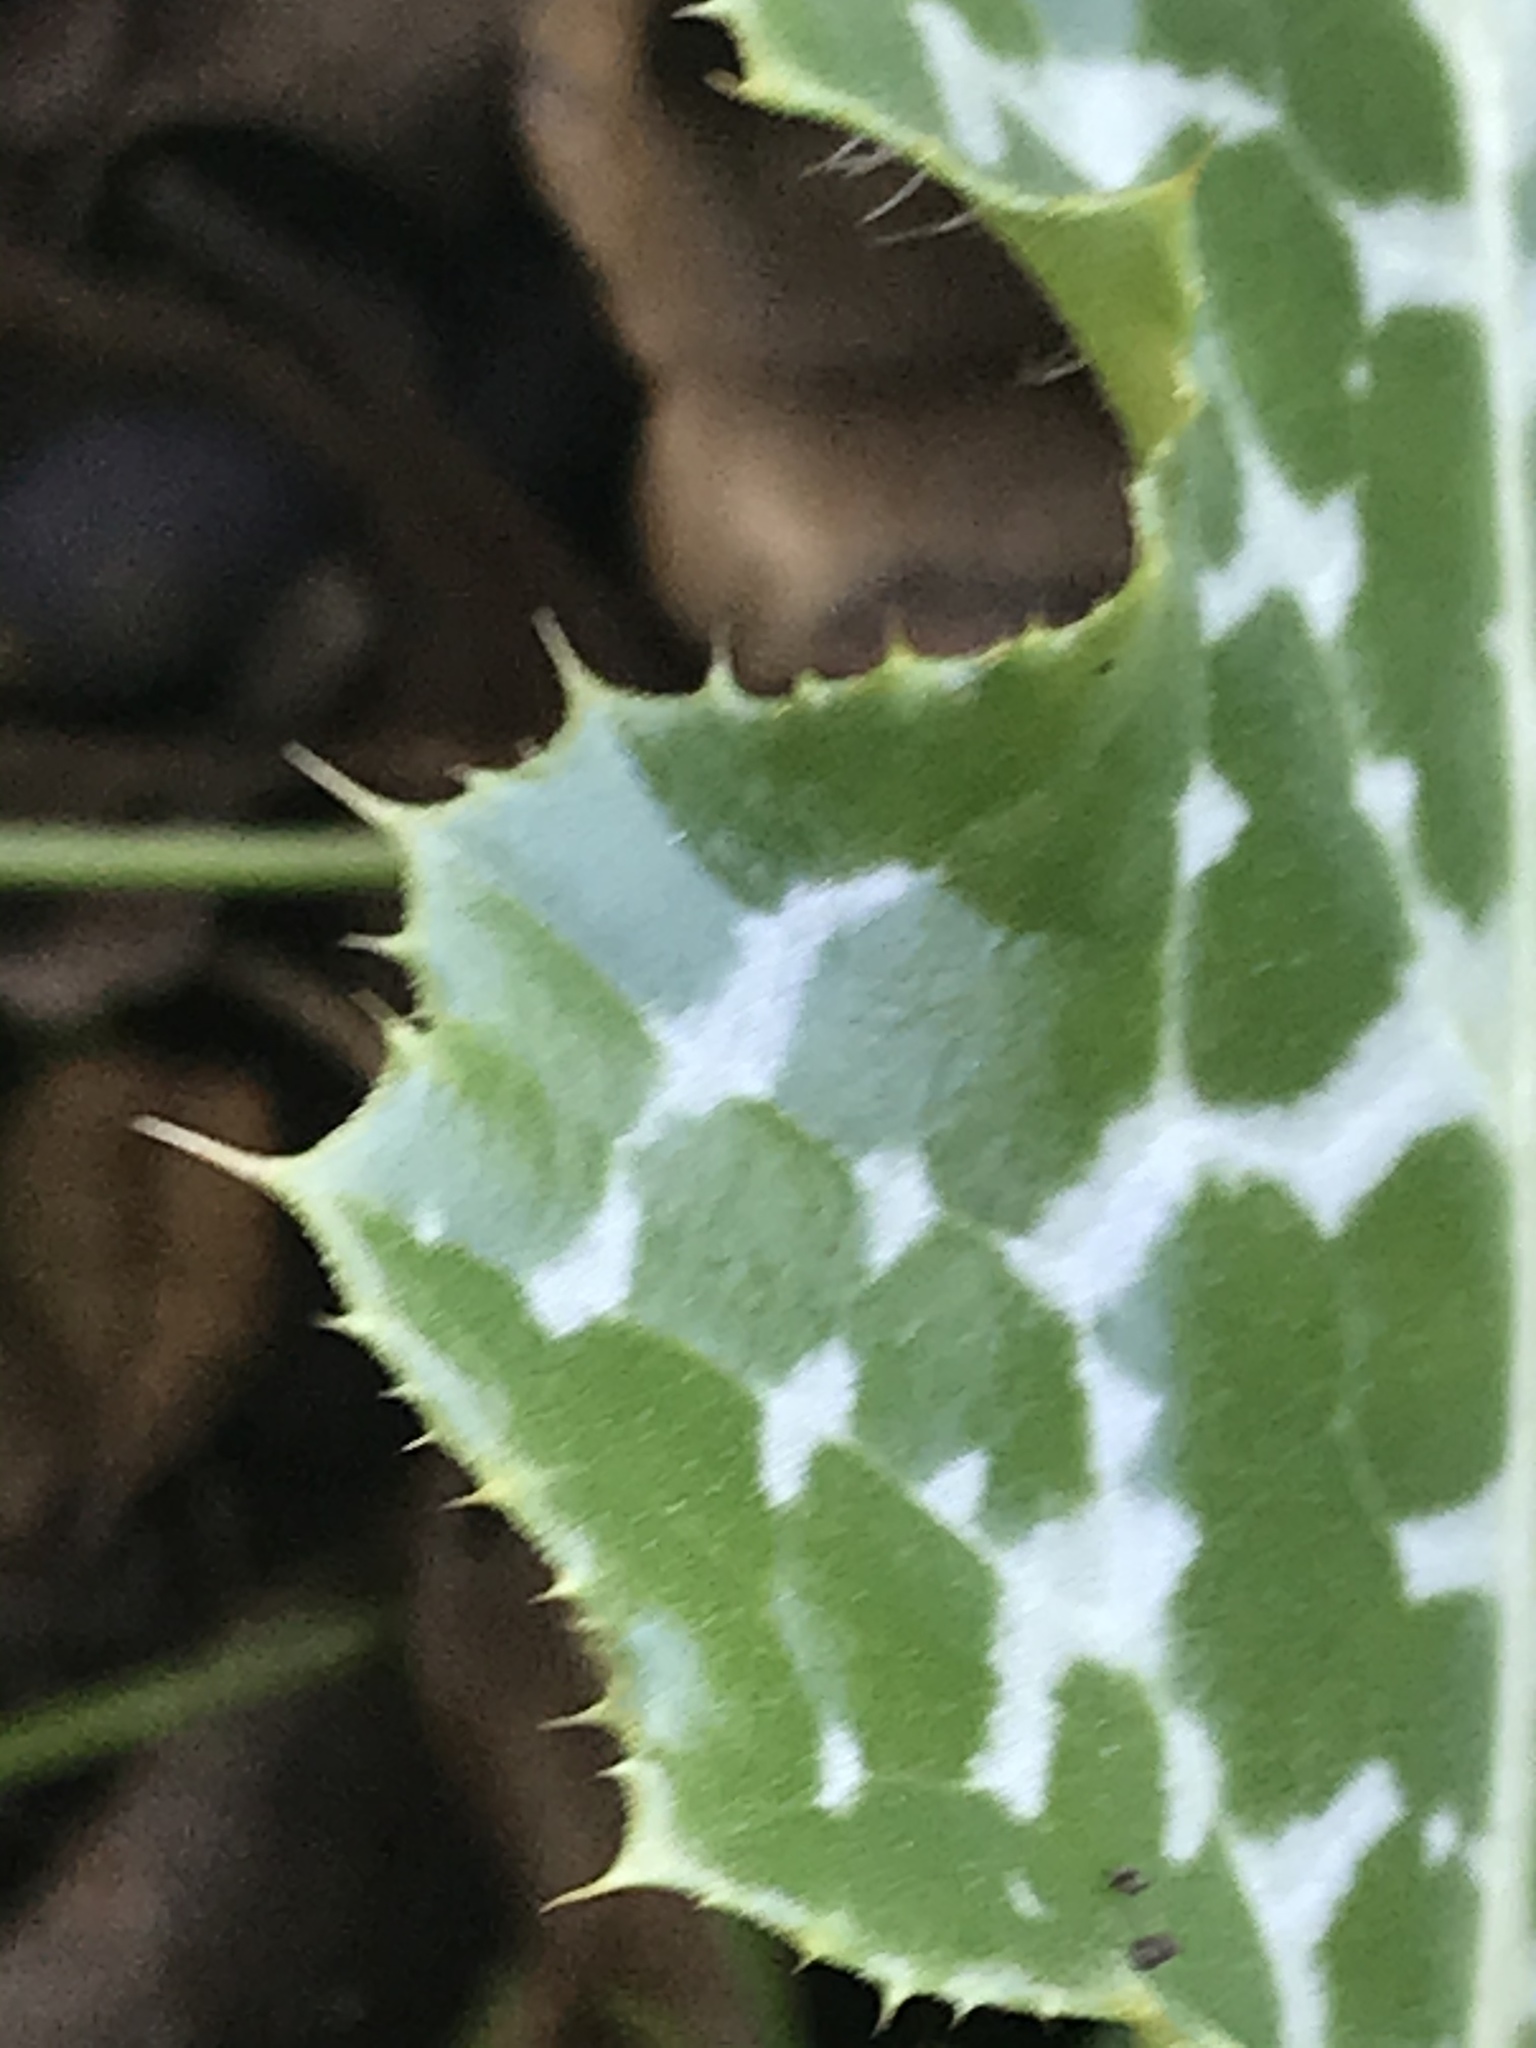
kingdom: Plantae
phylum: Tracheophyta
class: Magnoliopsida
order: Asterales
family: Asteraceae
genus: Silybum
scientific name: Silybum marianum
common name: Milk thistle
